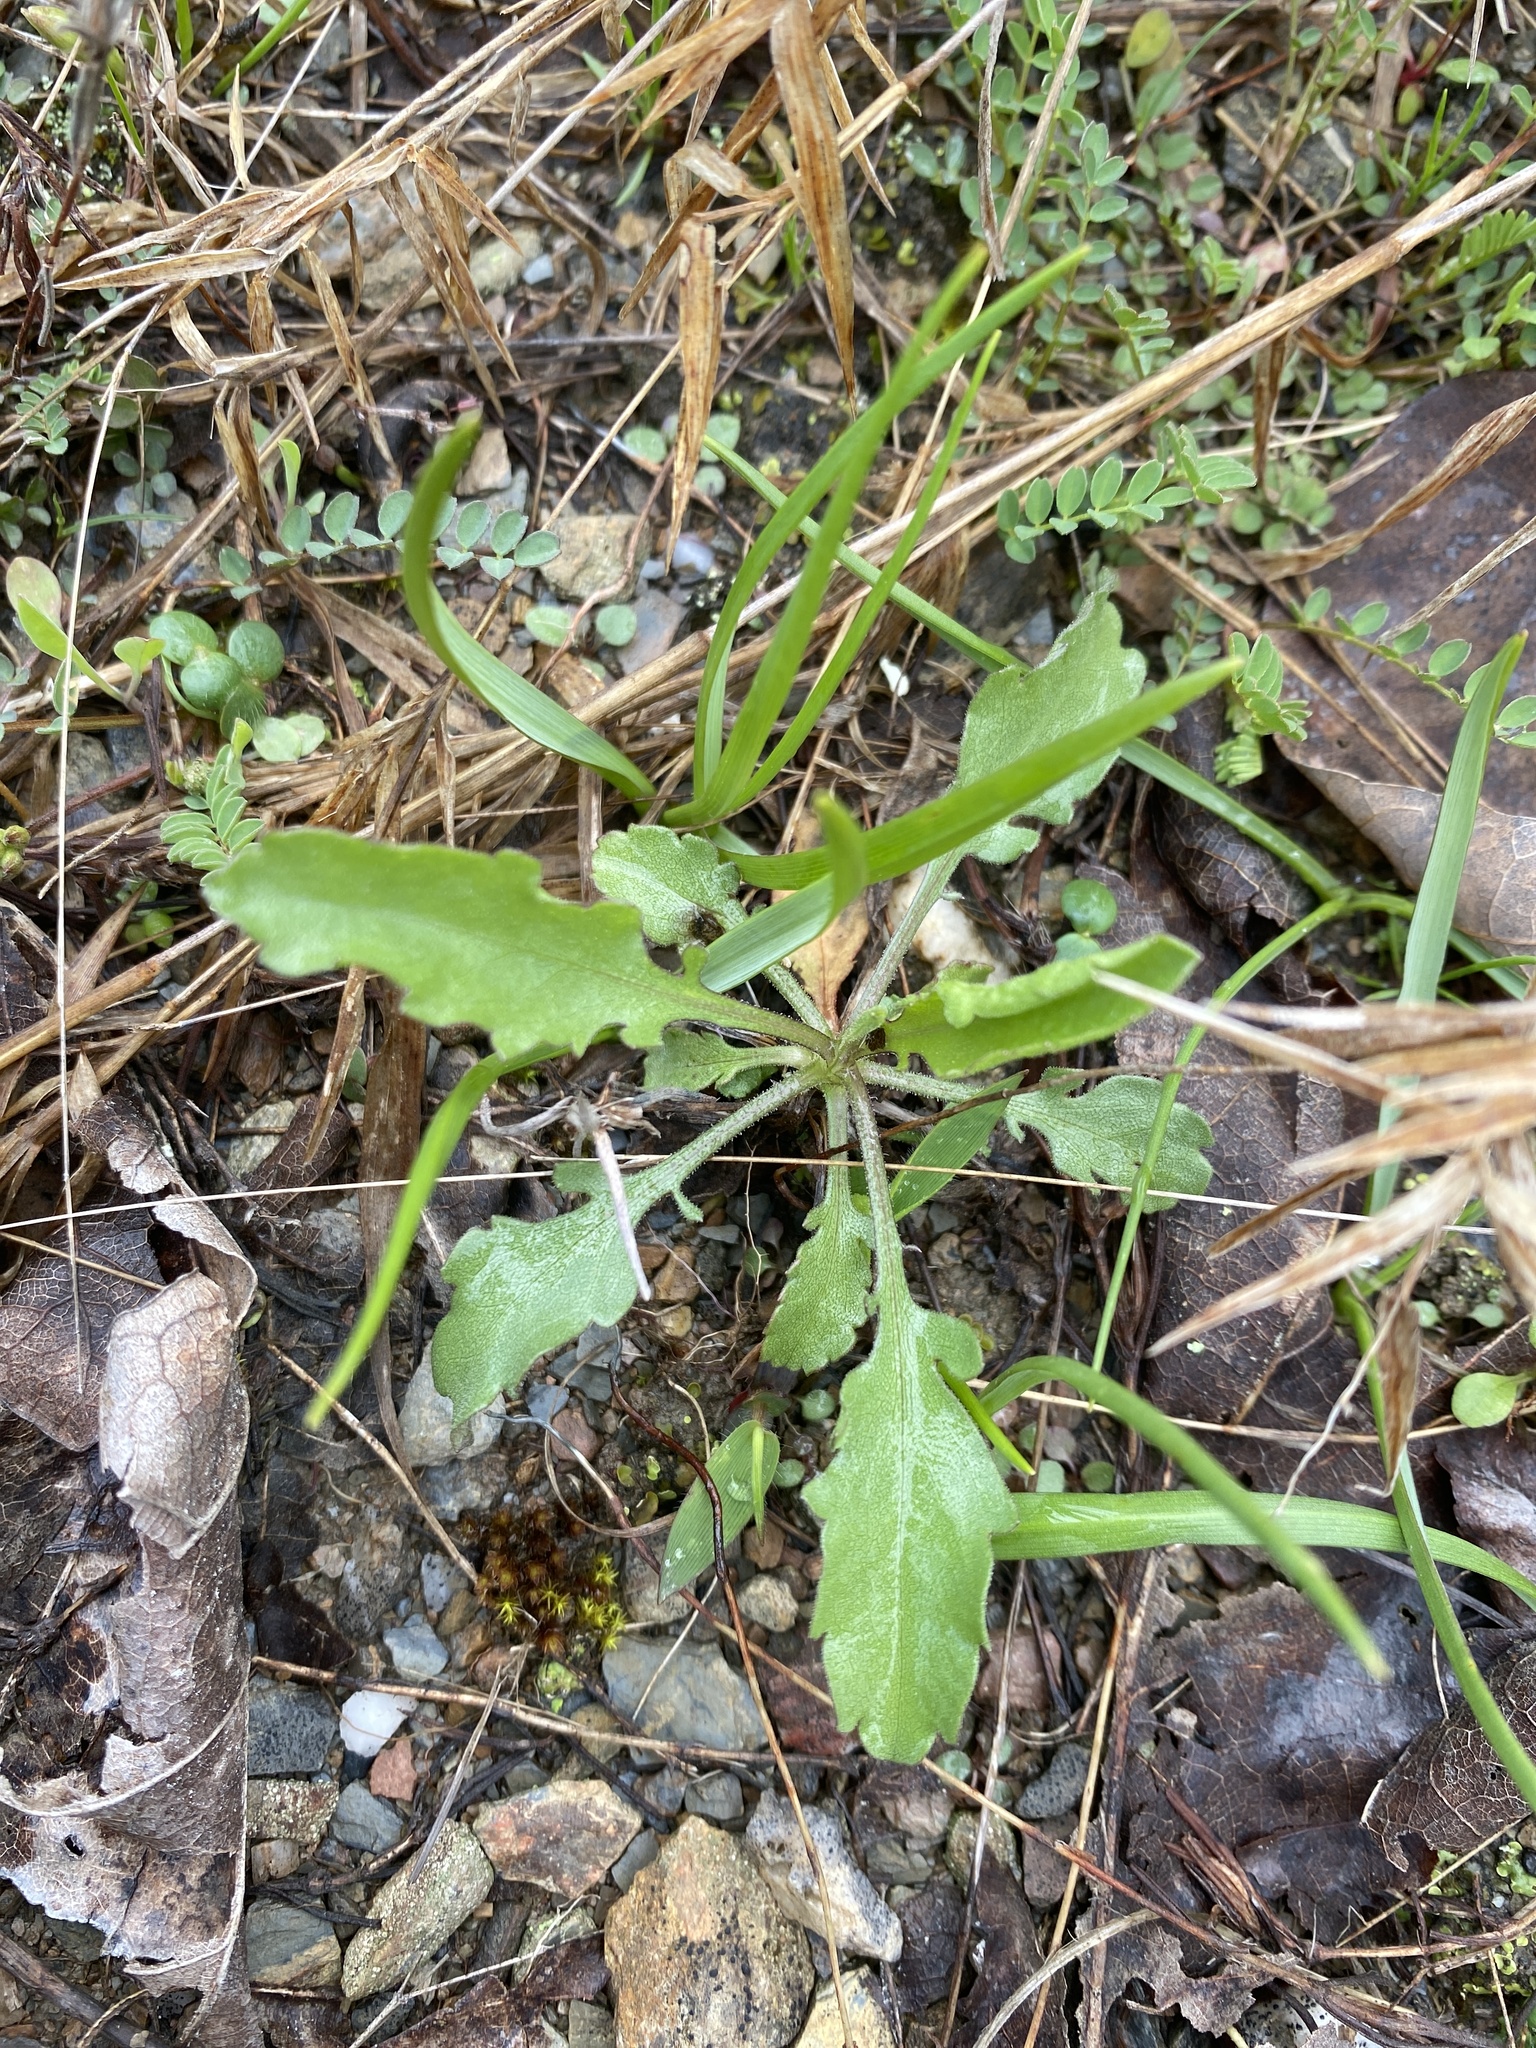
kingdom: Plantae
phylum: Tracheophyta
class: Magnoliopsida
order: Asterales
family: Asteraceae
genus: Grindelia
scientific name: Grindelia lanceolata
